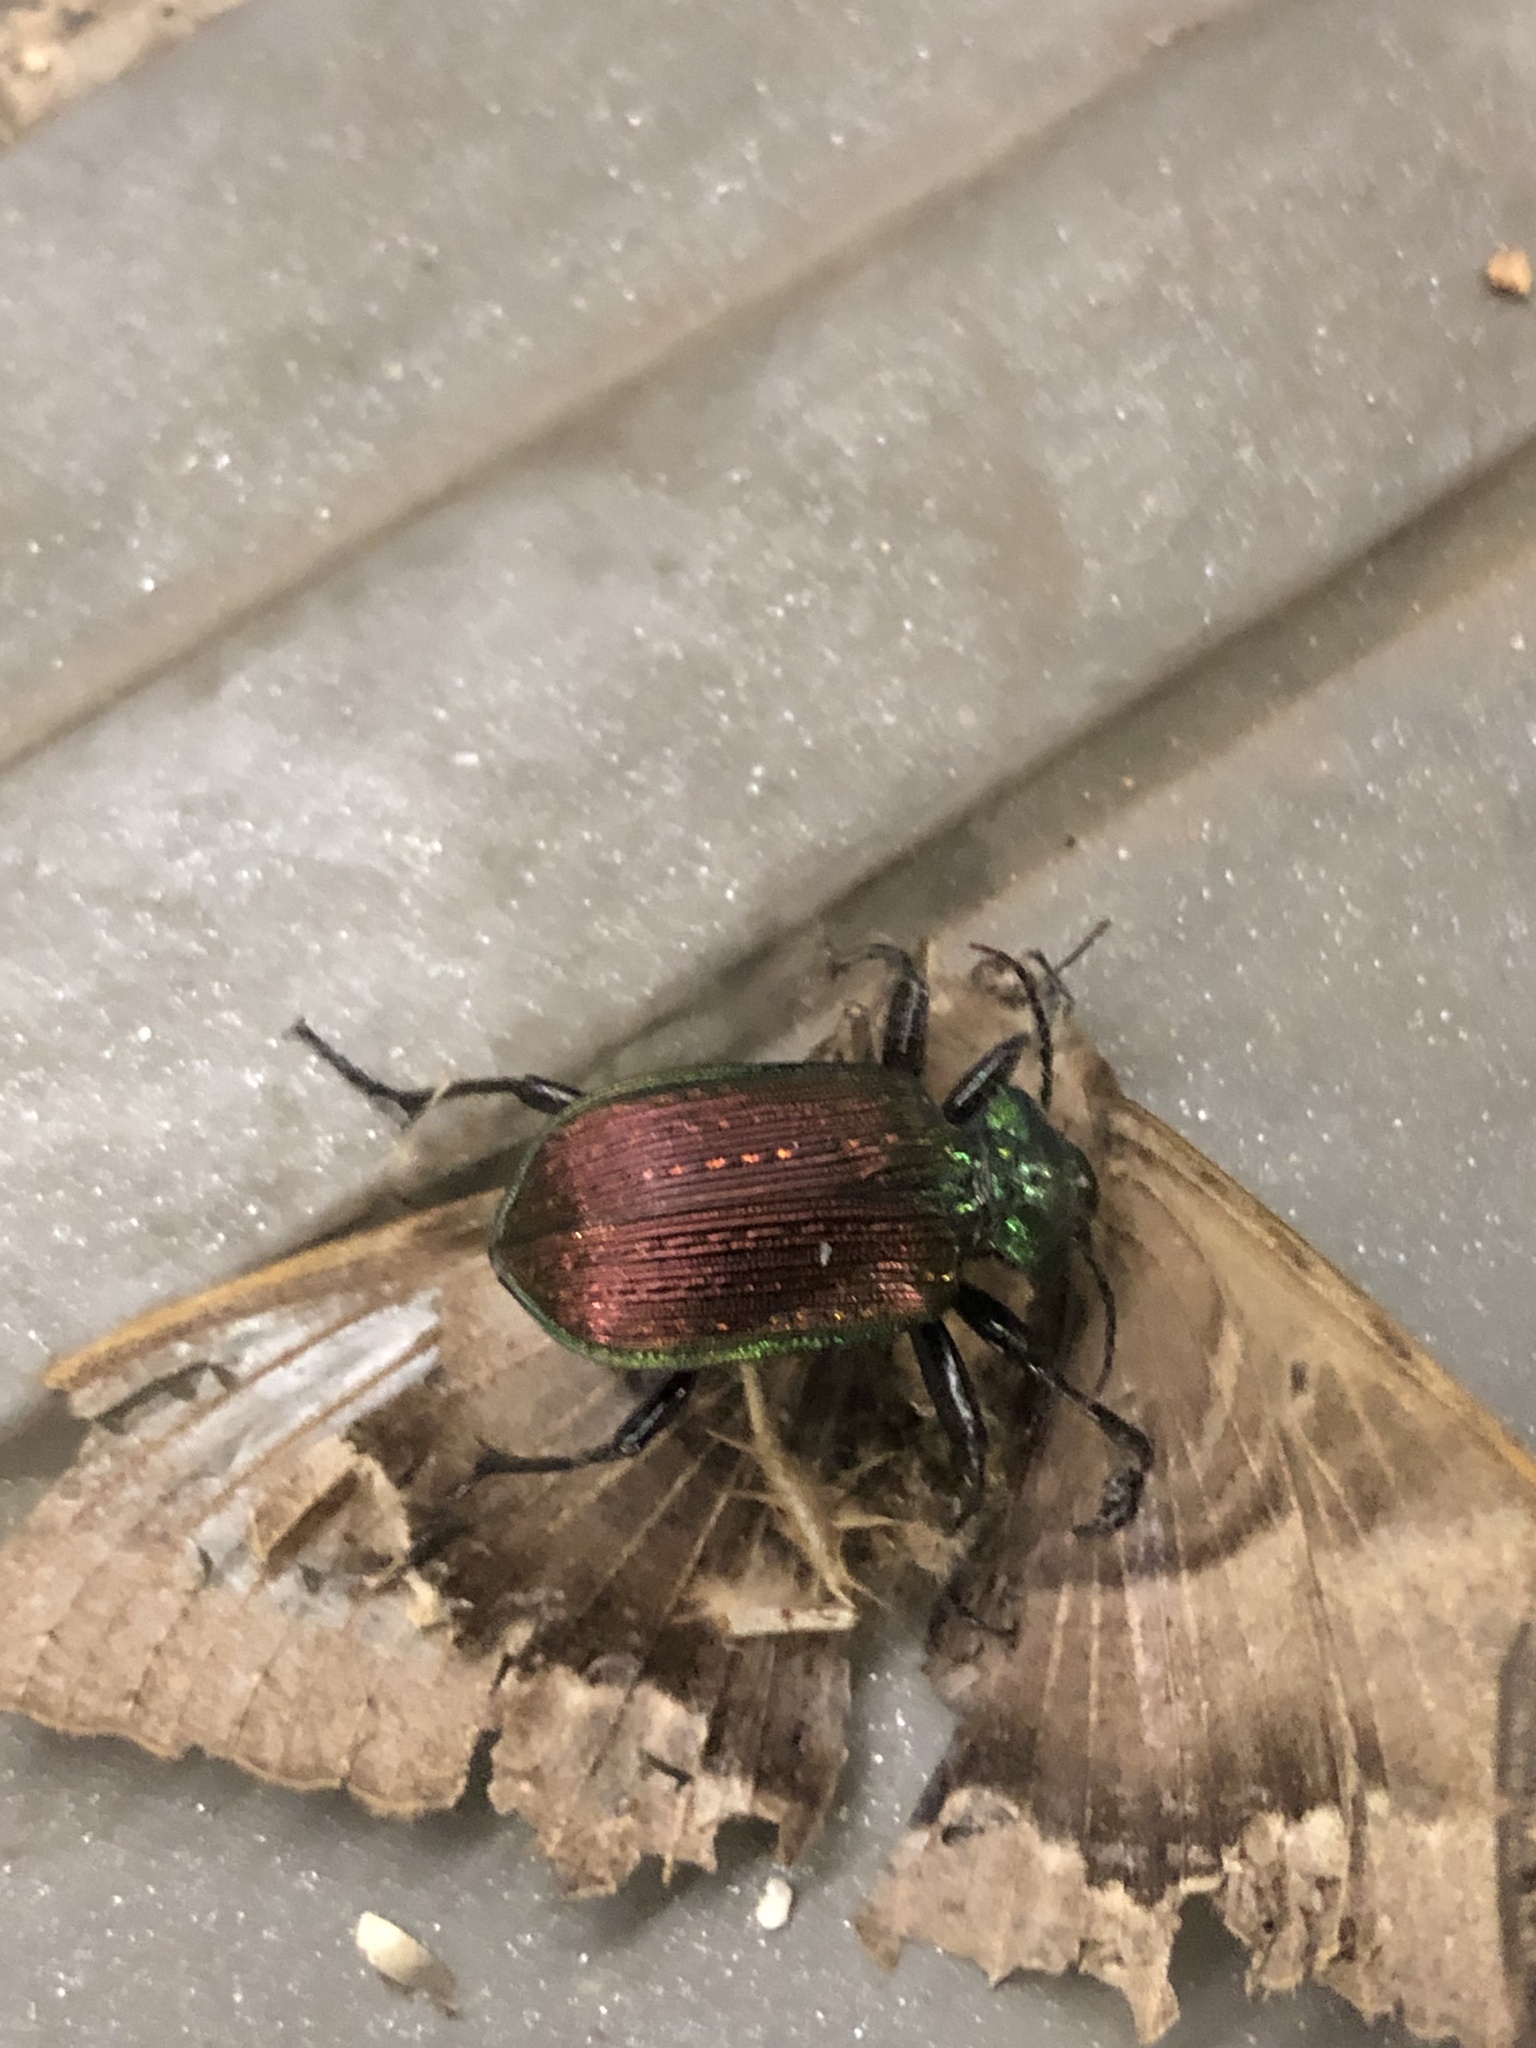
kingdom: Animalia
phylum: Arthropoda
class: Insecta
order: Coleoptera
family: Carabidae
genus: Calosoma
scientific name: Calosoma alternans
